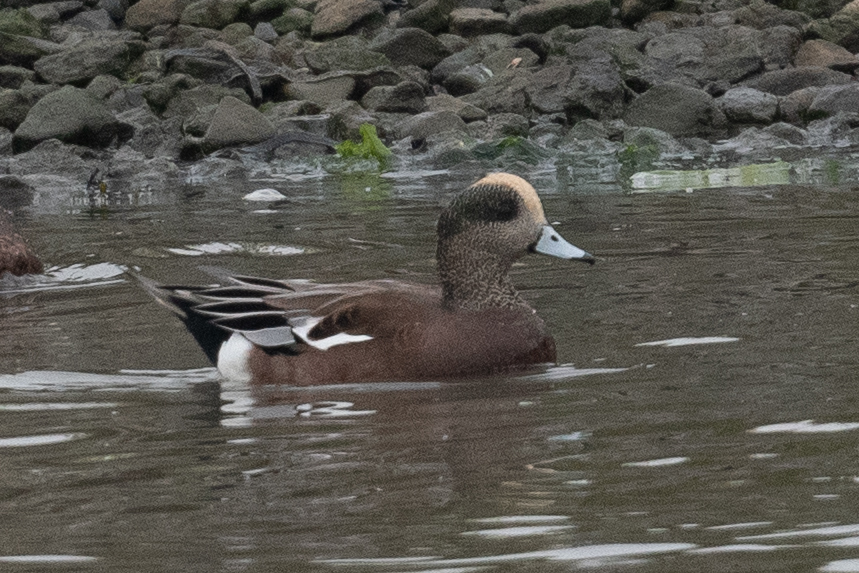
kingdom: Animalia
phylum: Chordata
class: Aves
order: Anseriformes
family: Anatidae
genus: Mareca
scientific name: Mareca americana
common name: American wigeon
